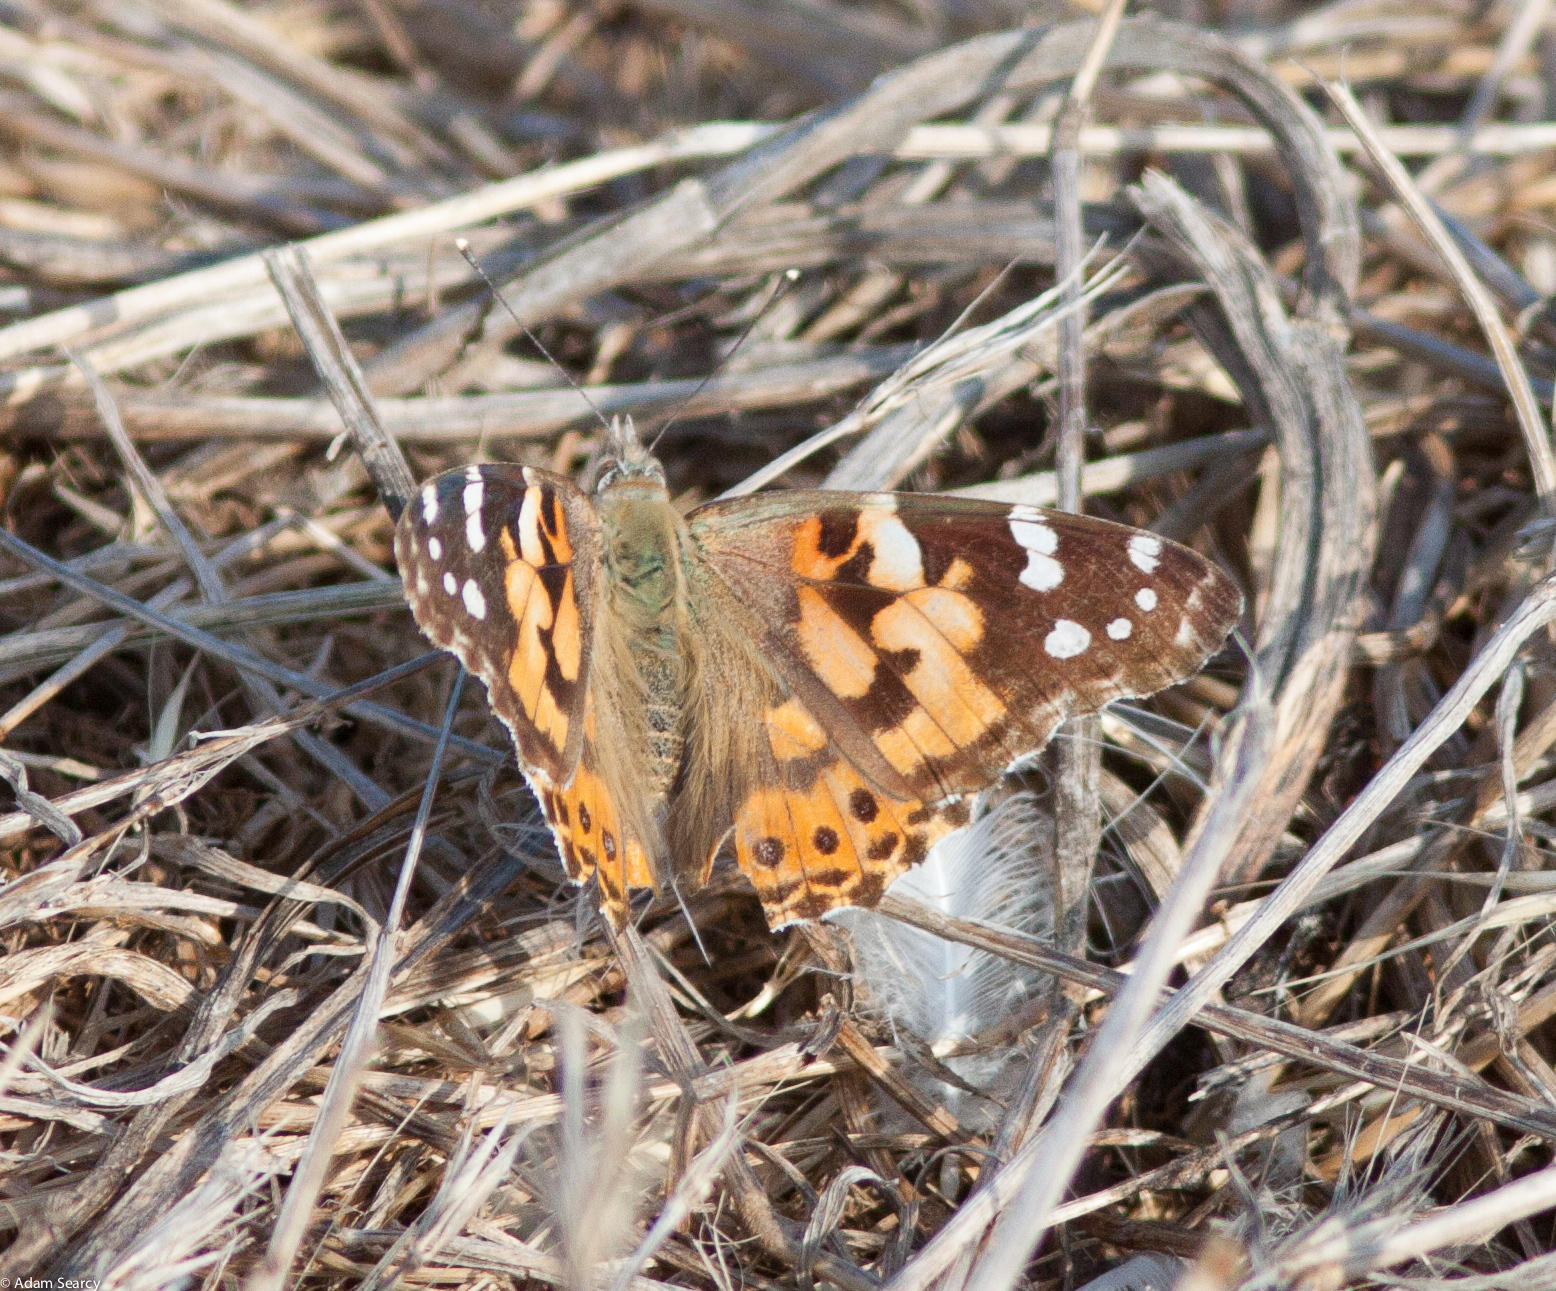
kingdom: Animalia
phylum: Arthropoda
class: Insecta
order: Lepidoptera
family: Nymphalidae
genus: Vanessa
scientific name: Vanessa cardui
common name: Painted lady
